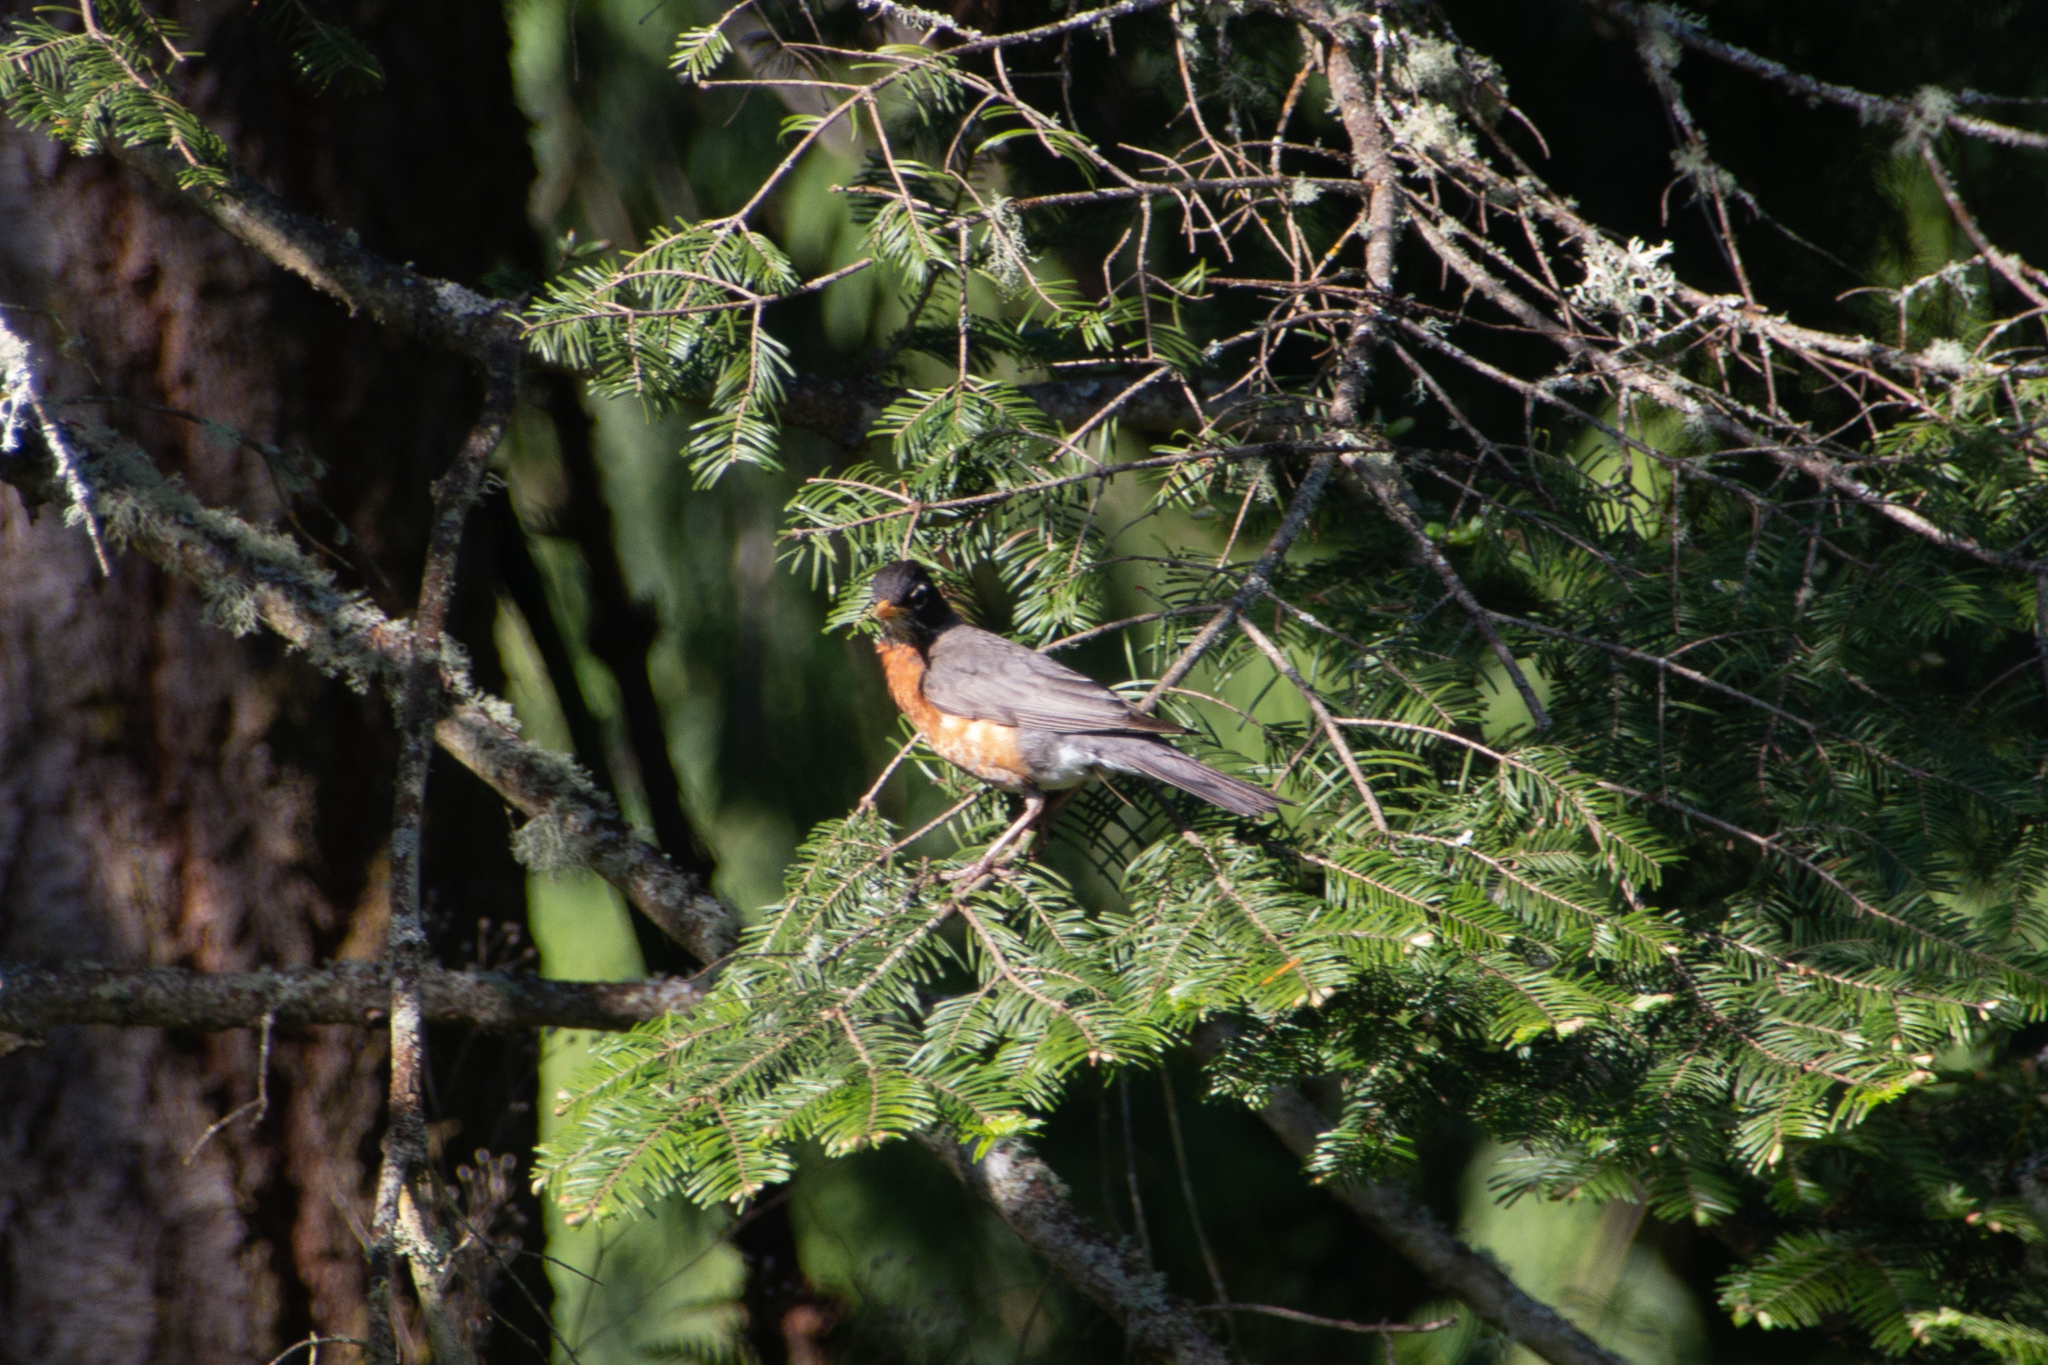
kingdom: Animalia
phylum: Chordata
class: Aves
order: Passeriformes
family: Turdidae
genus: Turdus
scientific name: Turdus migratorius
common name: American robin
